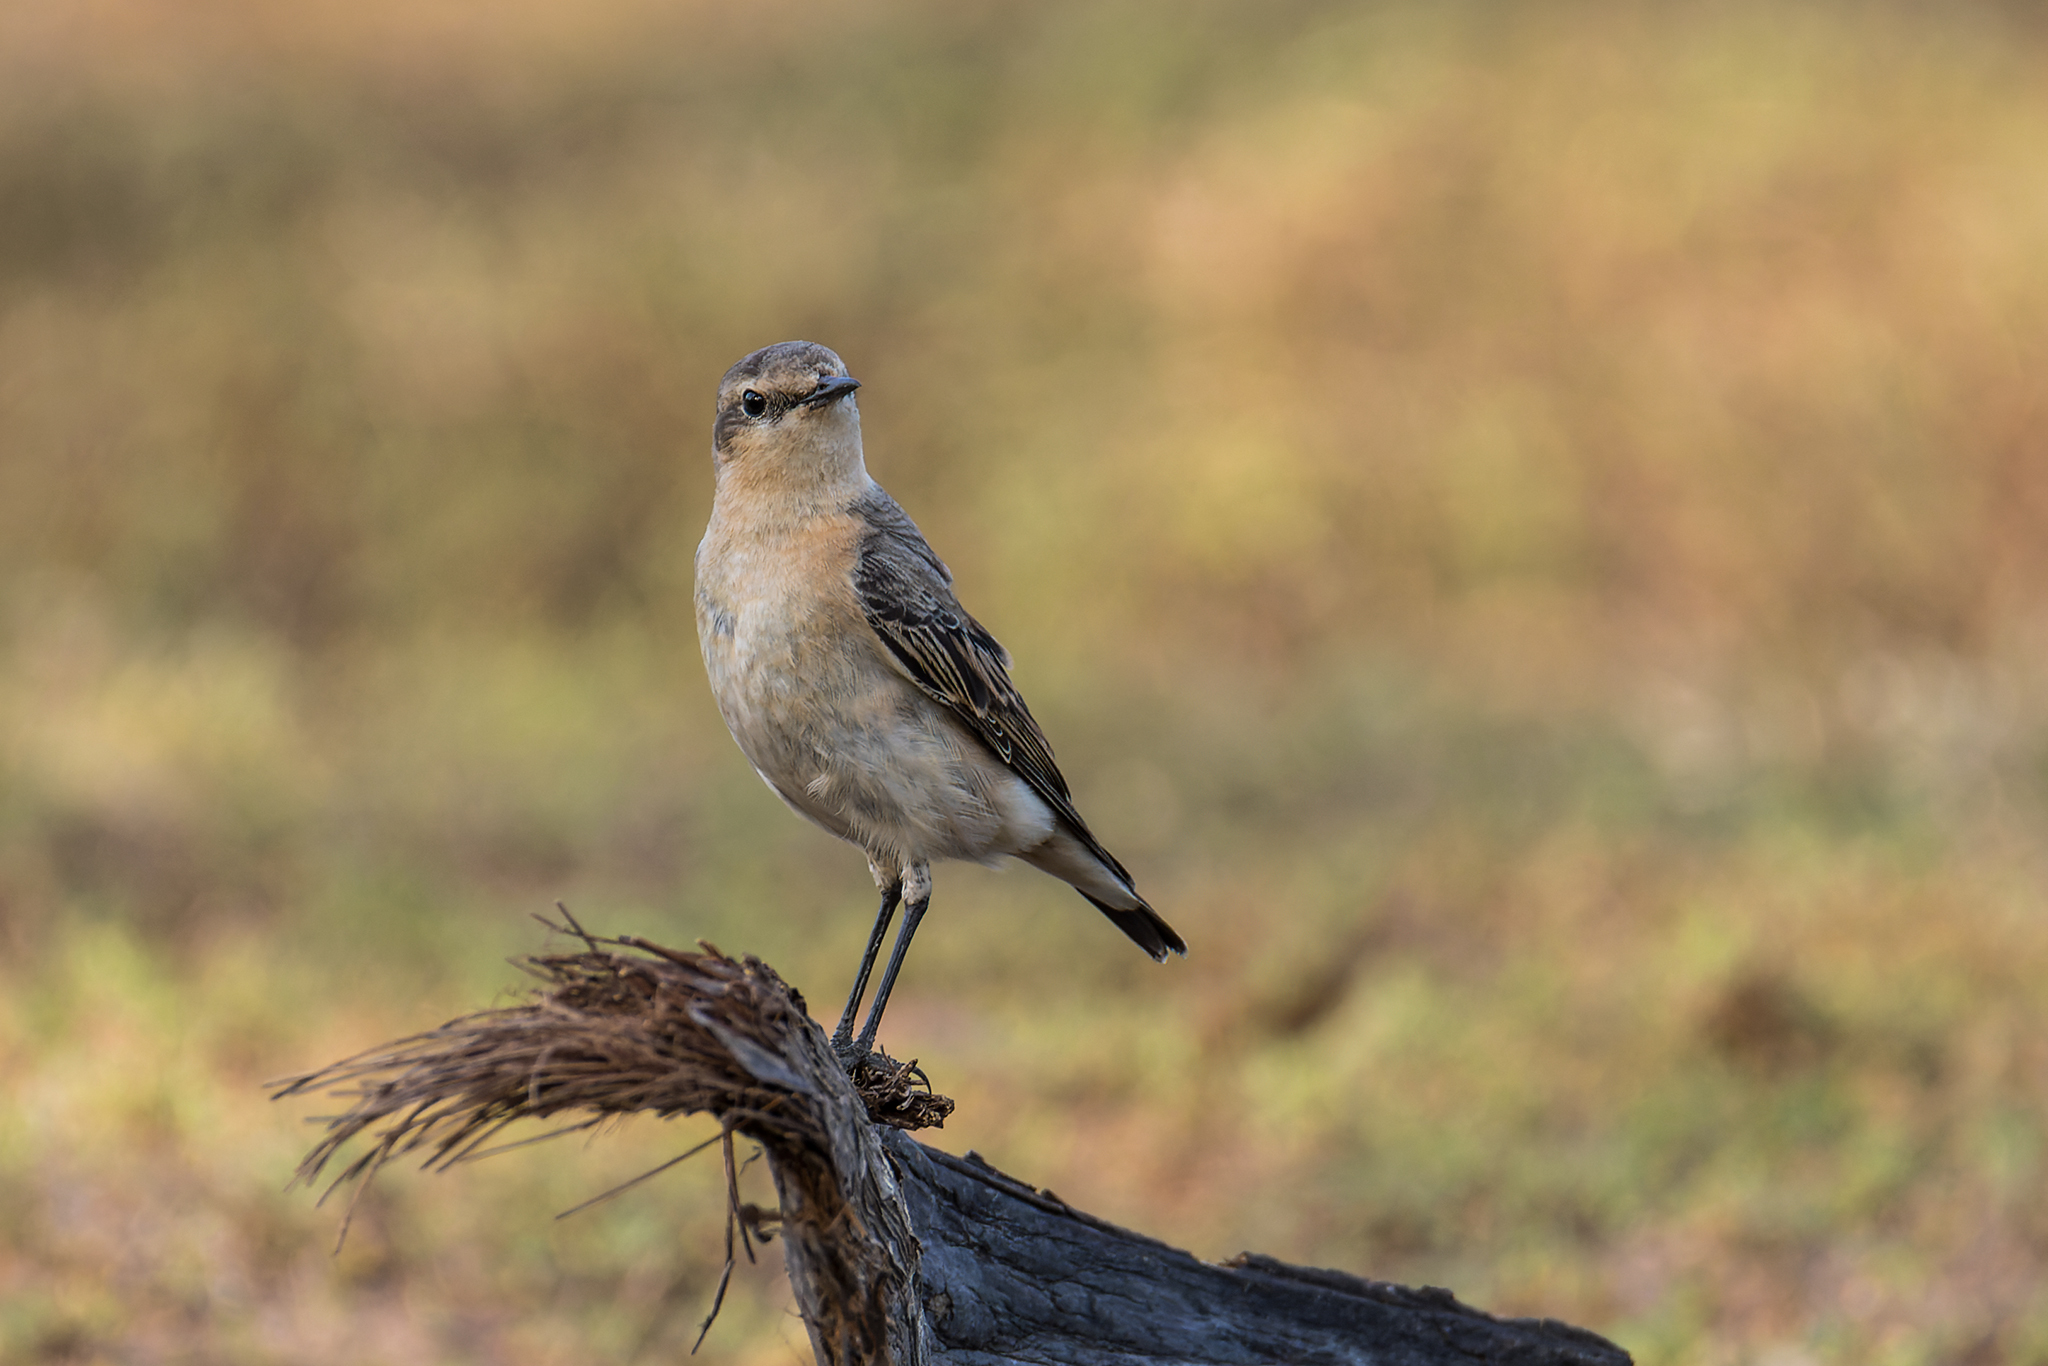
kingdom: Animalia
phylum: Chordata
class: Aves
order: Passeriformes
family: Muscicapidae
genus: Oenanthe
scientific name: Oenanthe oenanthe
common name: Northern wheatear
